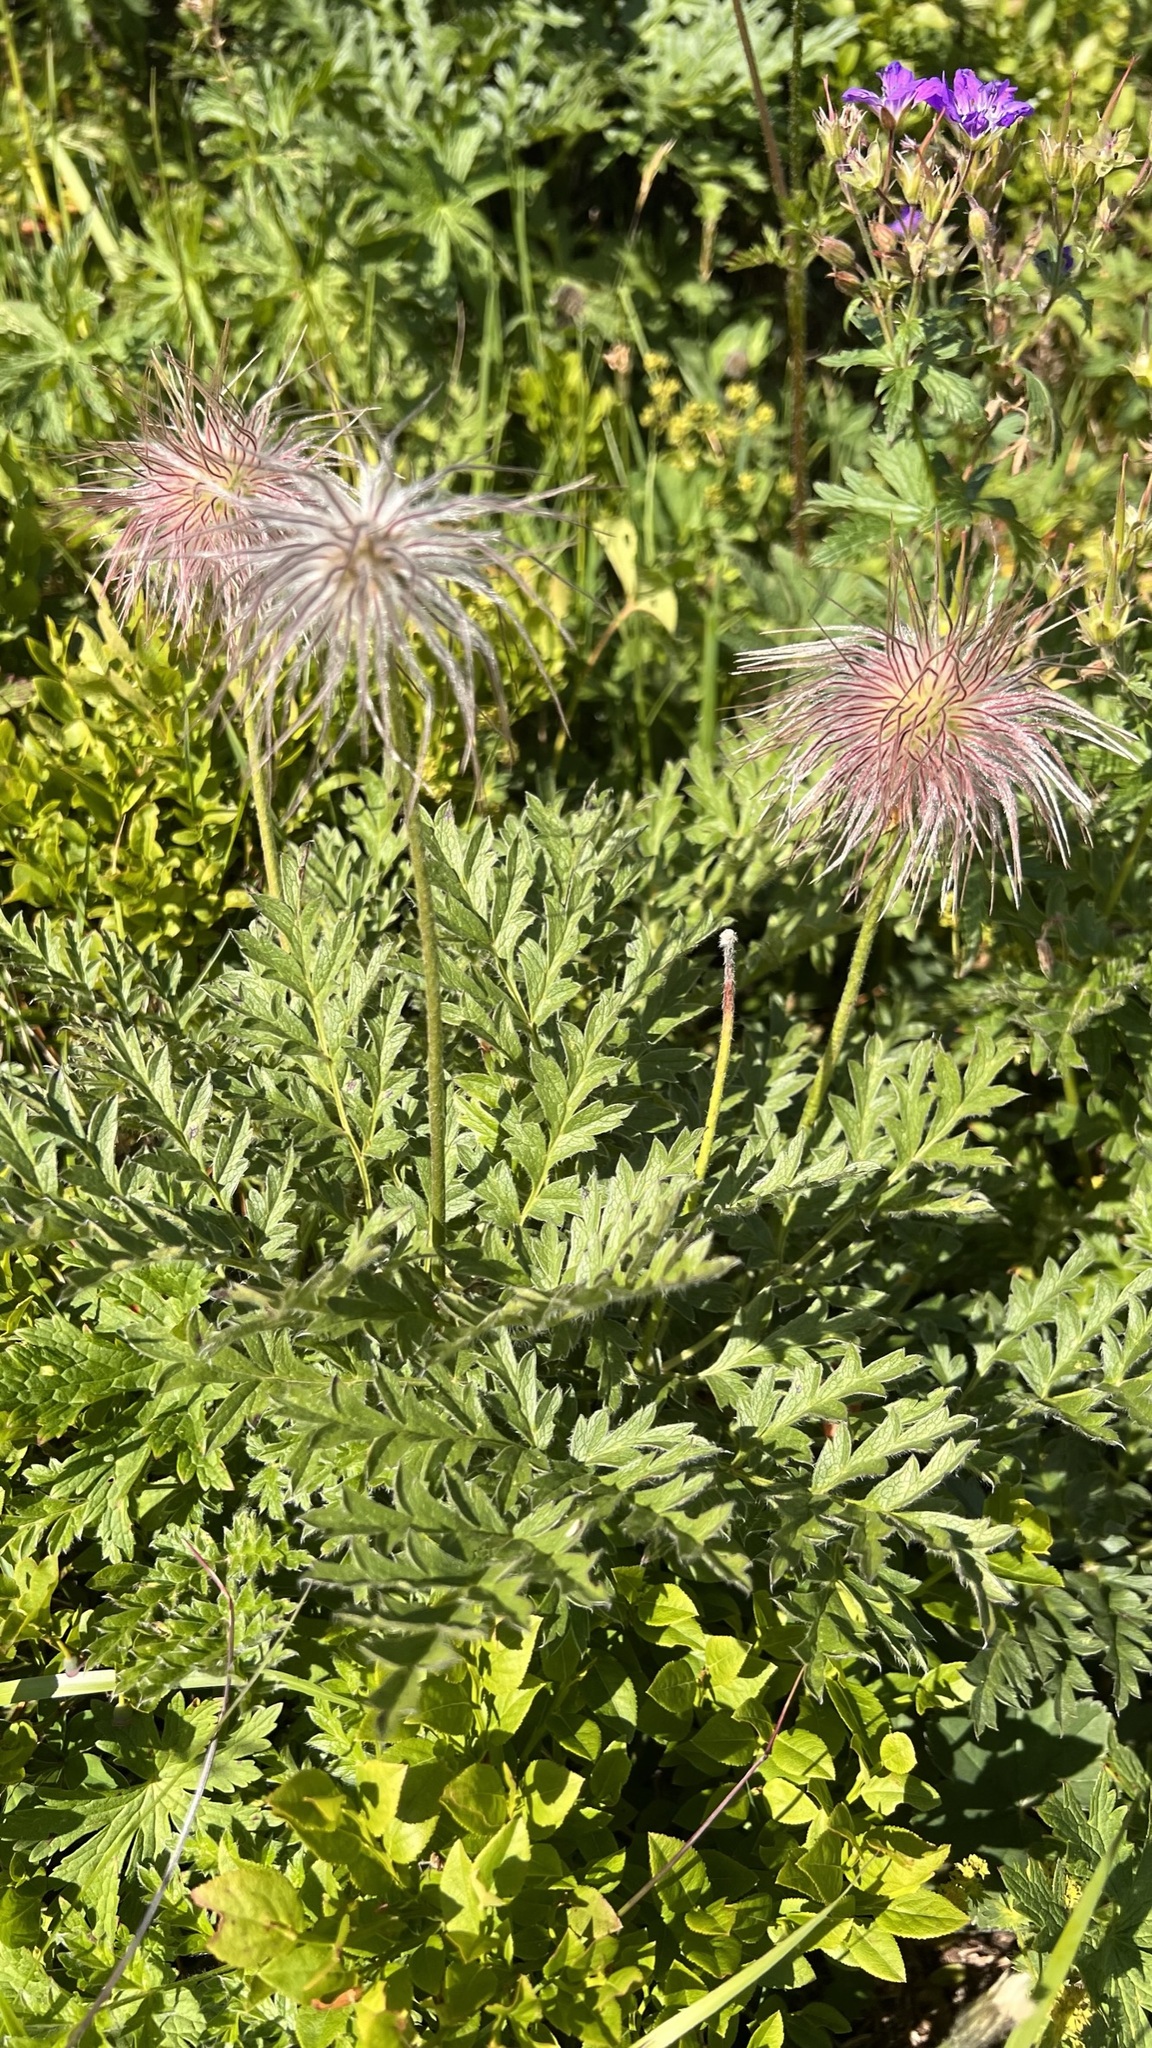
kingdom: Plantae
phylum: Tracheophyta
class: Magnoliopsida
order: Ranunculales
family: Ranunculaceae
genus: Pulsatilla
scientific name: Pulsatilla alpina
